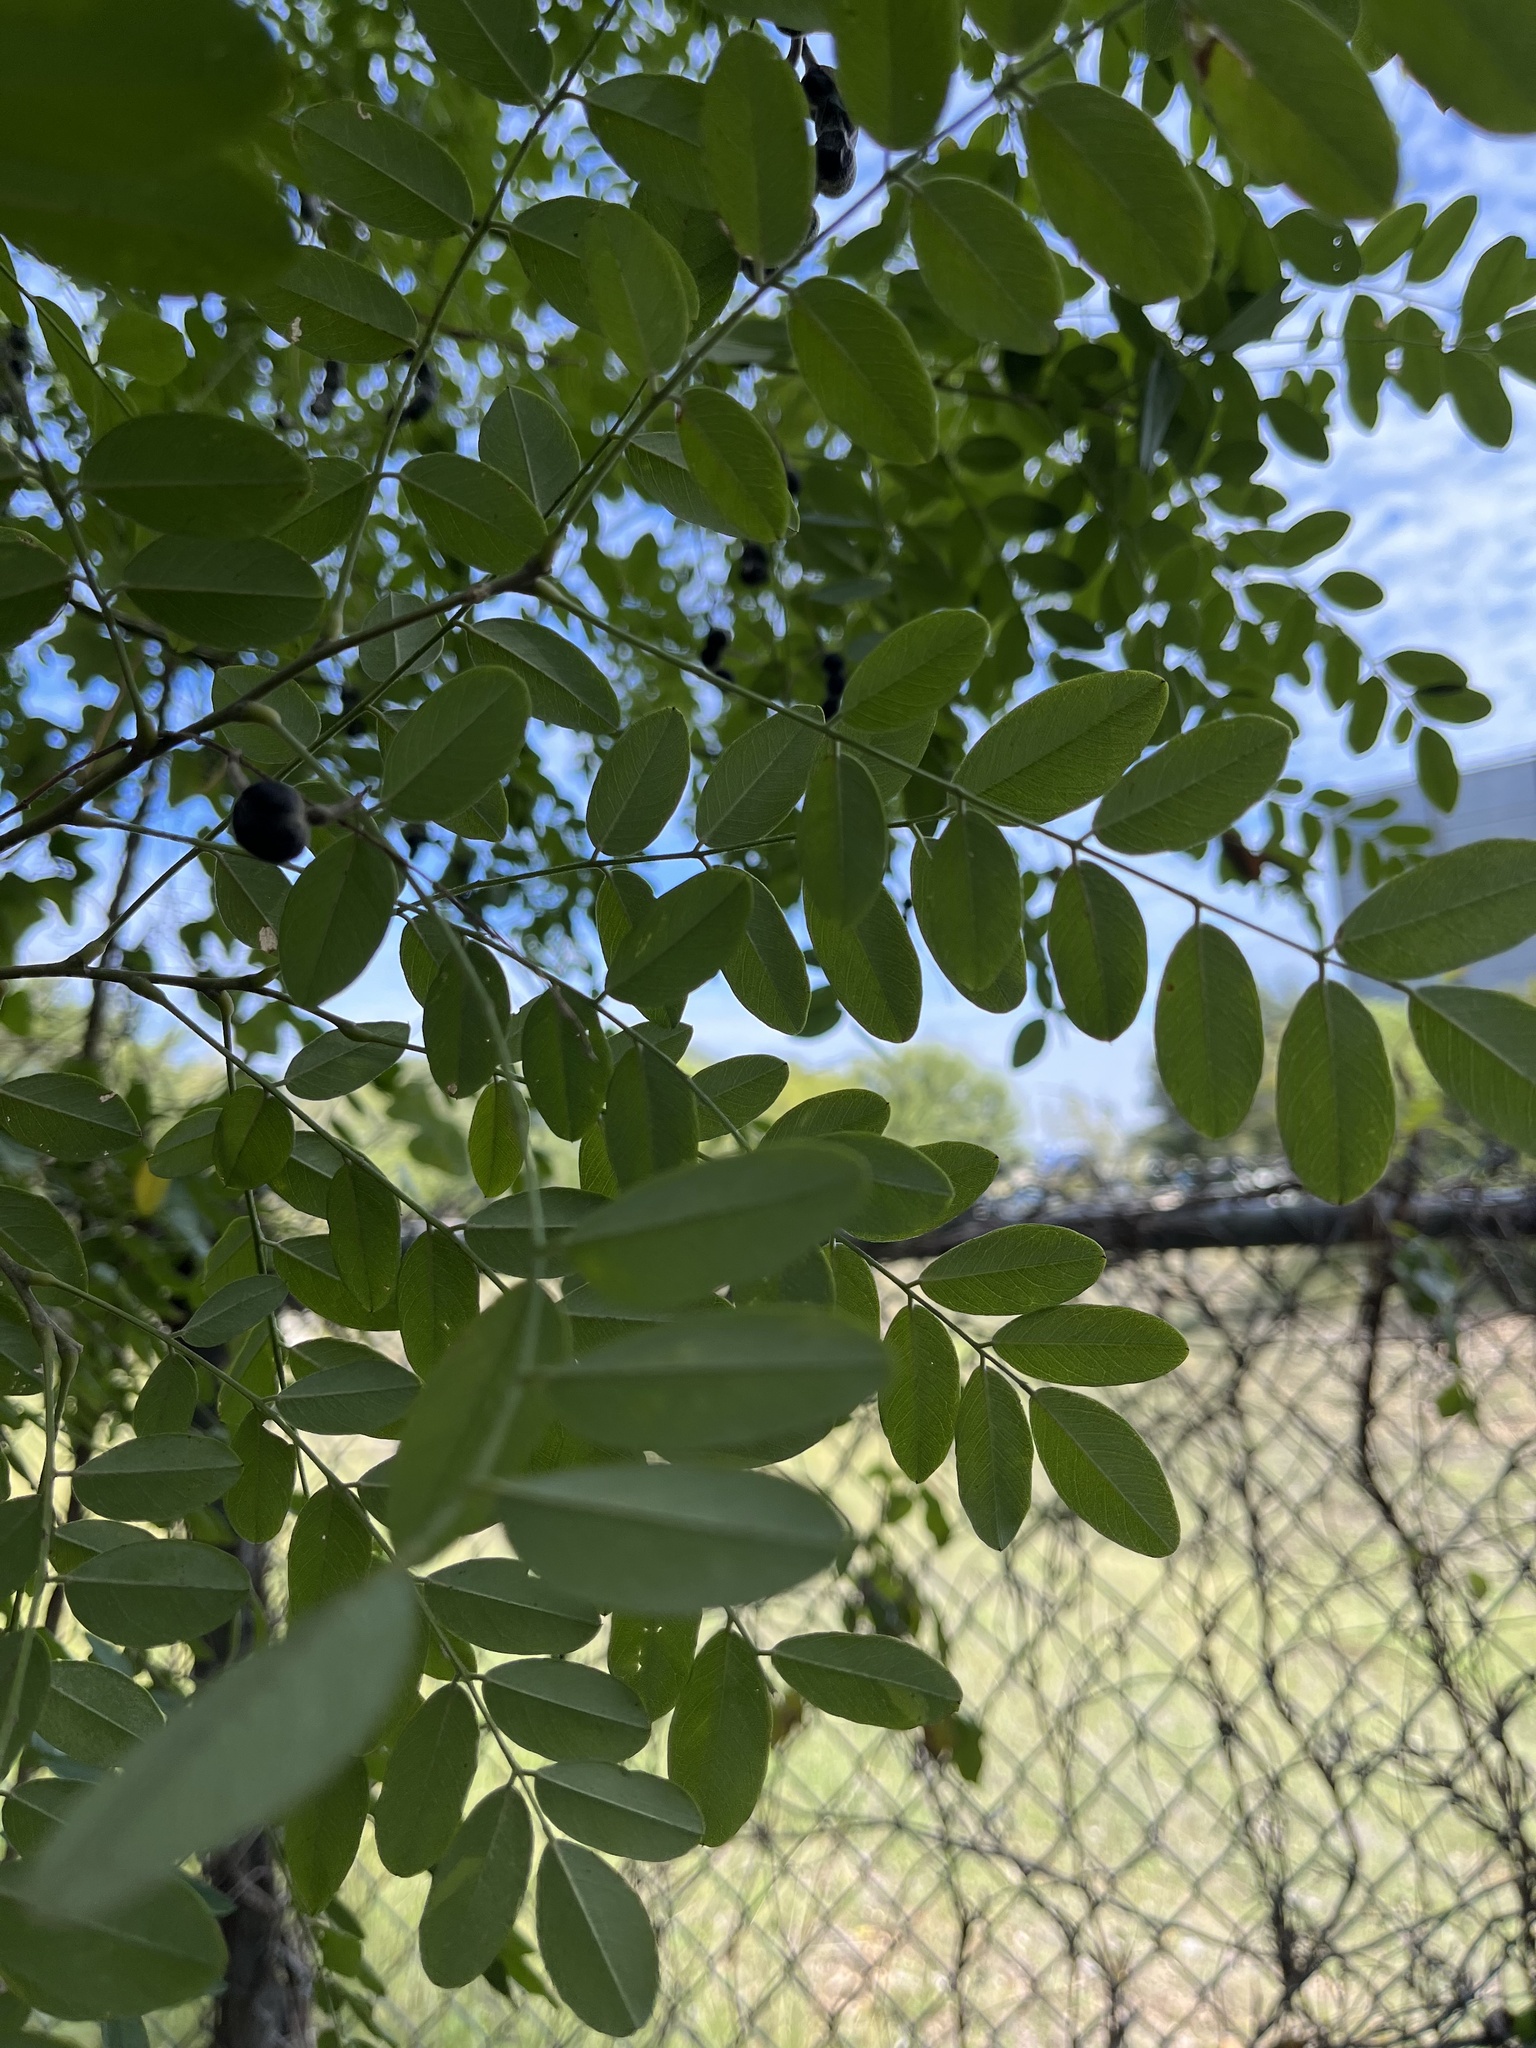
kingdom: Plantae
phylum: Tracheophyta
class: Magnoliopsida
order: Fabales
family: Fabaceae
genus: Styphnolobium
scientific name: Styphnolobium affine
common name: Texas sophora
